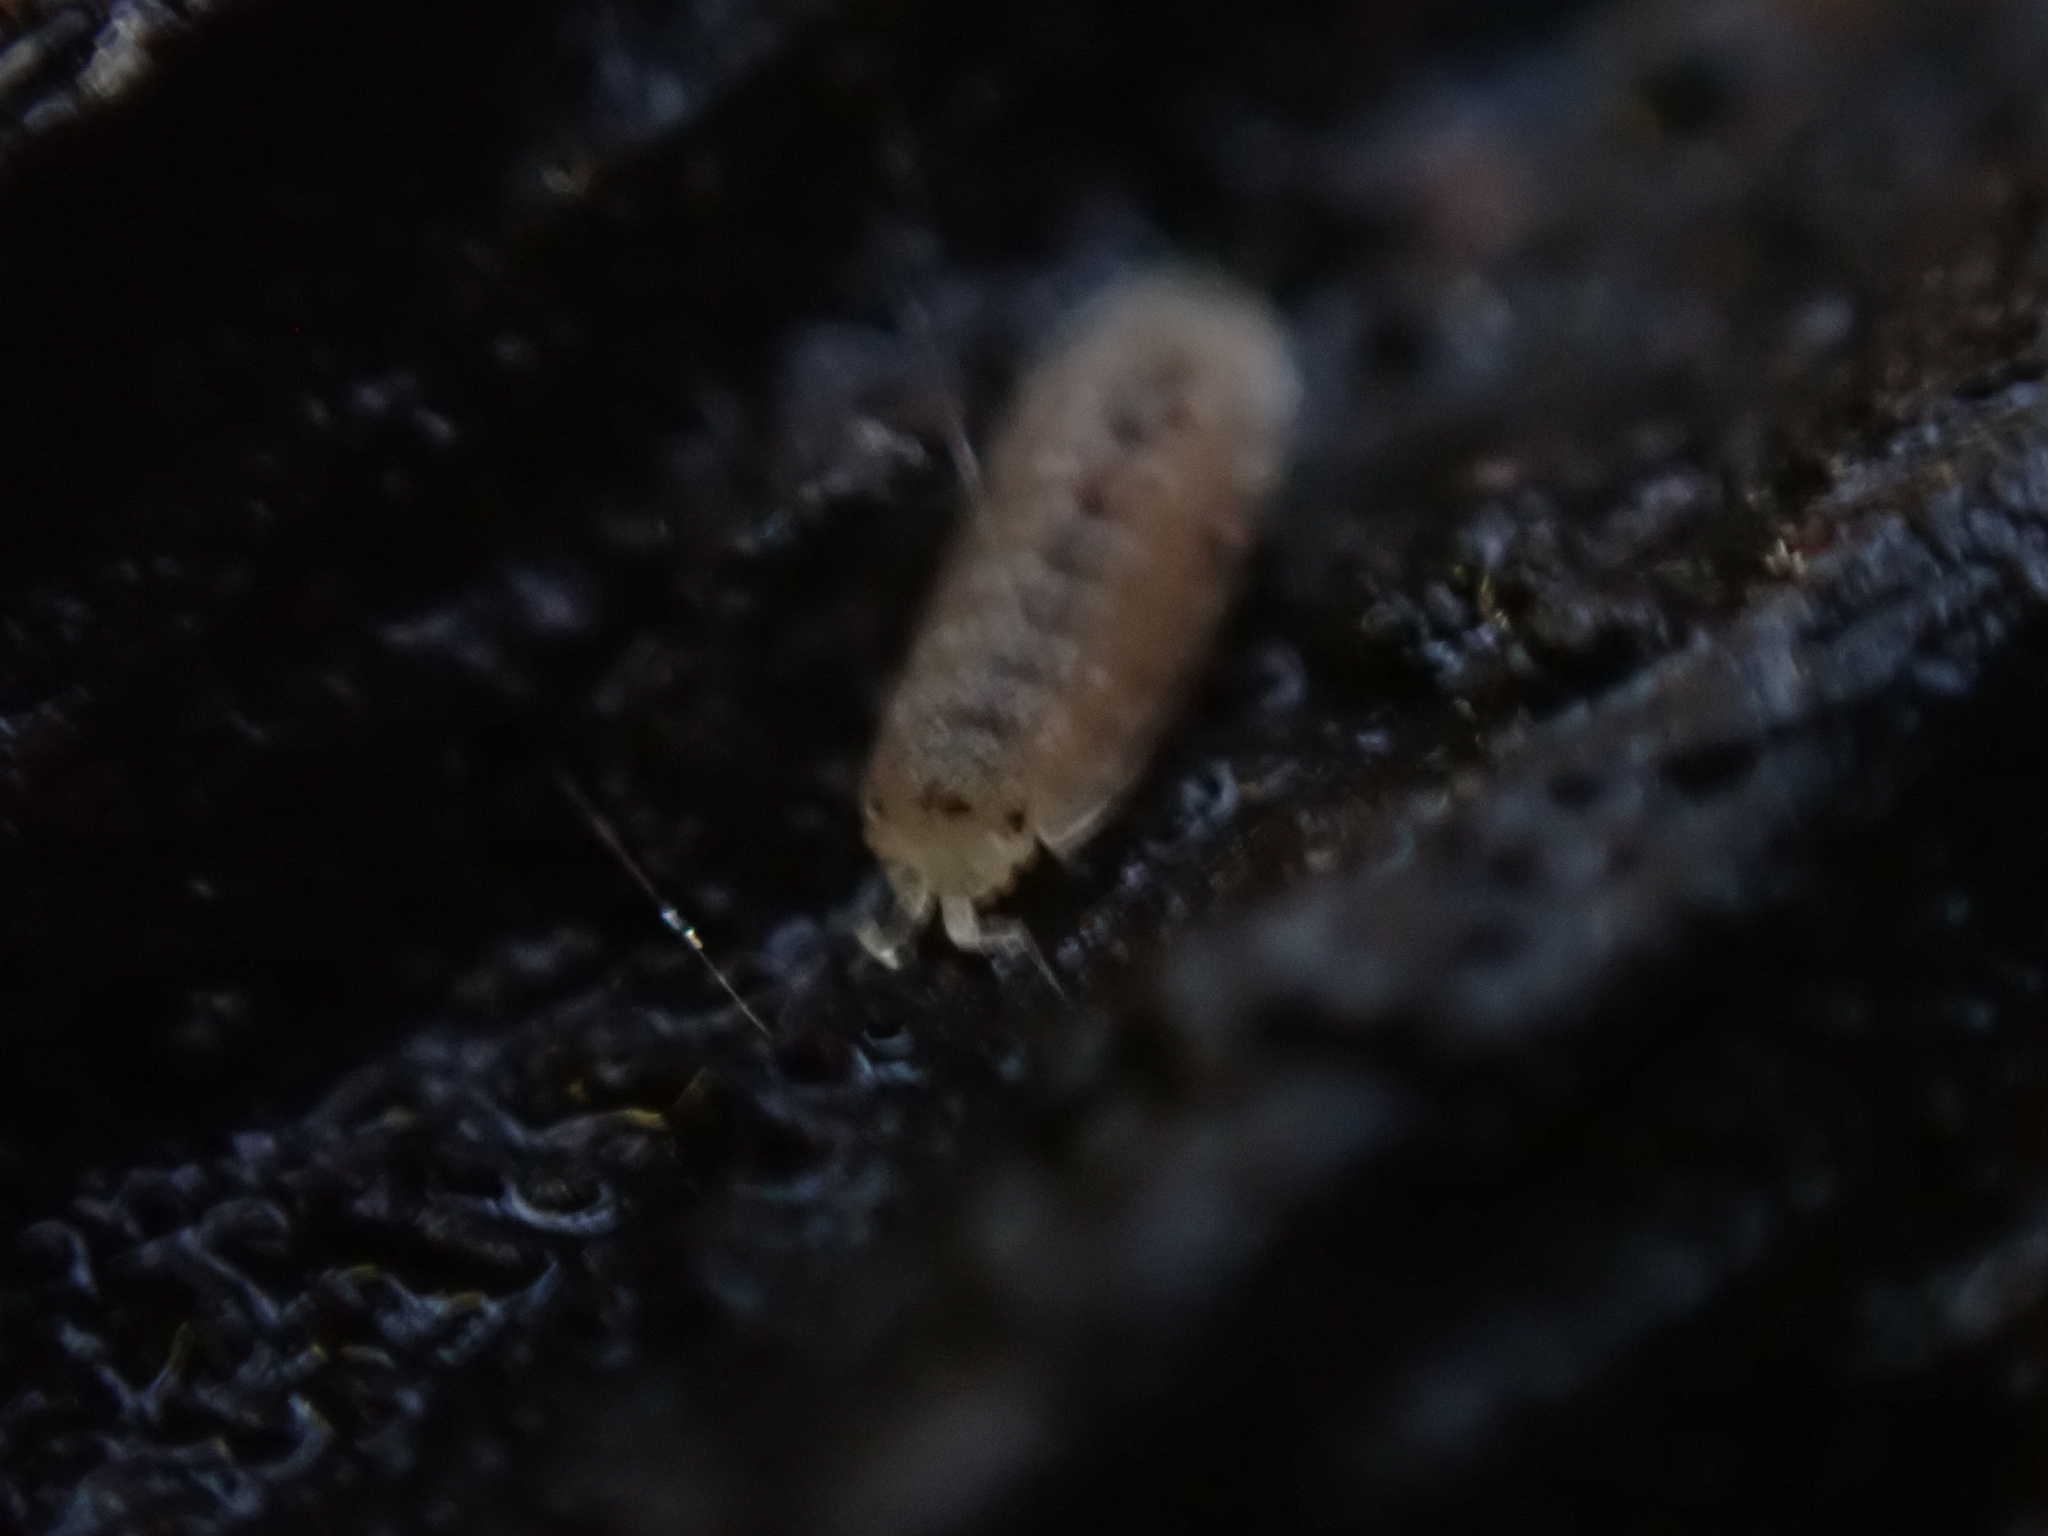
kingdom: Animalia
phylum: Arthropoda
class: Malacostraca
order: Isopoda
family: Trichoniscidae
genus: Haplophthalmus
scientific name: Haplophthalmus danicus
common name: Pillbug
